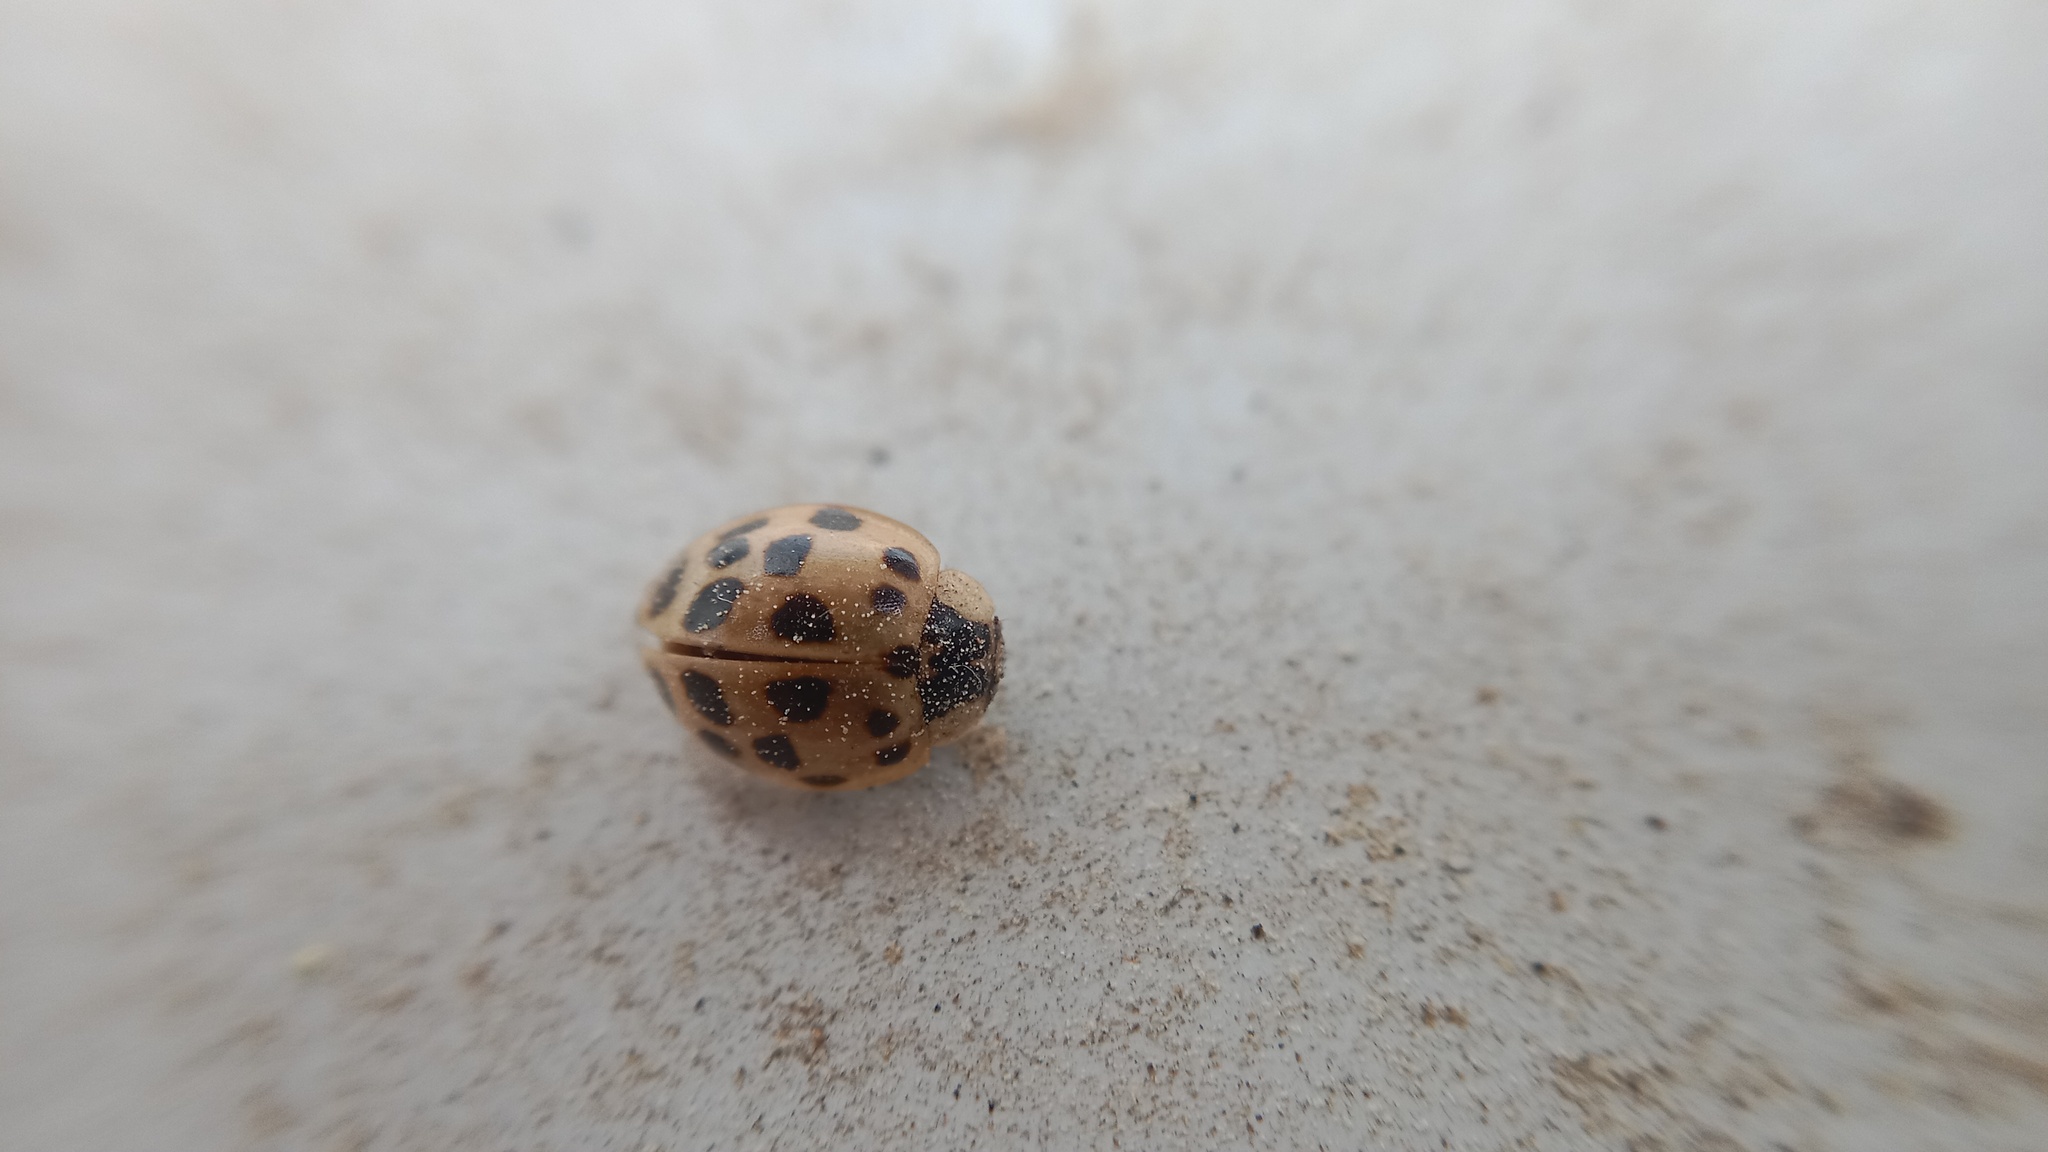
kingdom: Animalia
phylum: Arthropoda
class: Insecta
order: Coleoptera
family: Coccinellidae
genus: Harmonia
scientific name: Harmonia axyridis
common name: Harlequin ladybird
